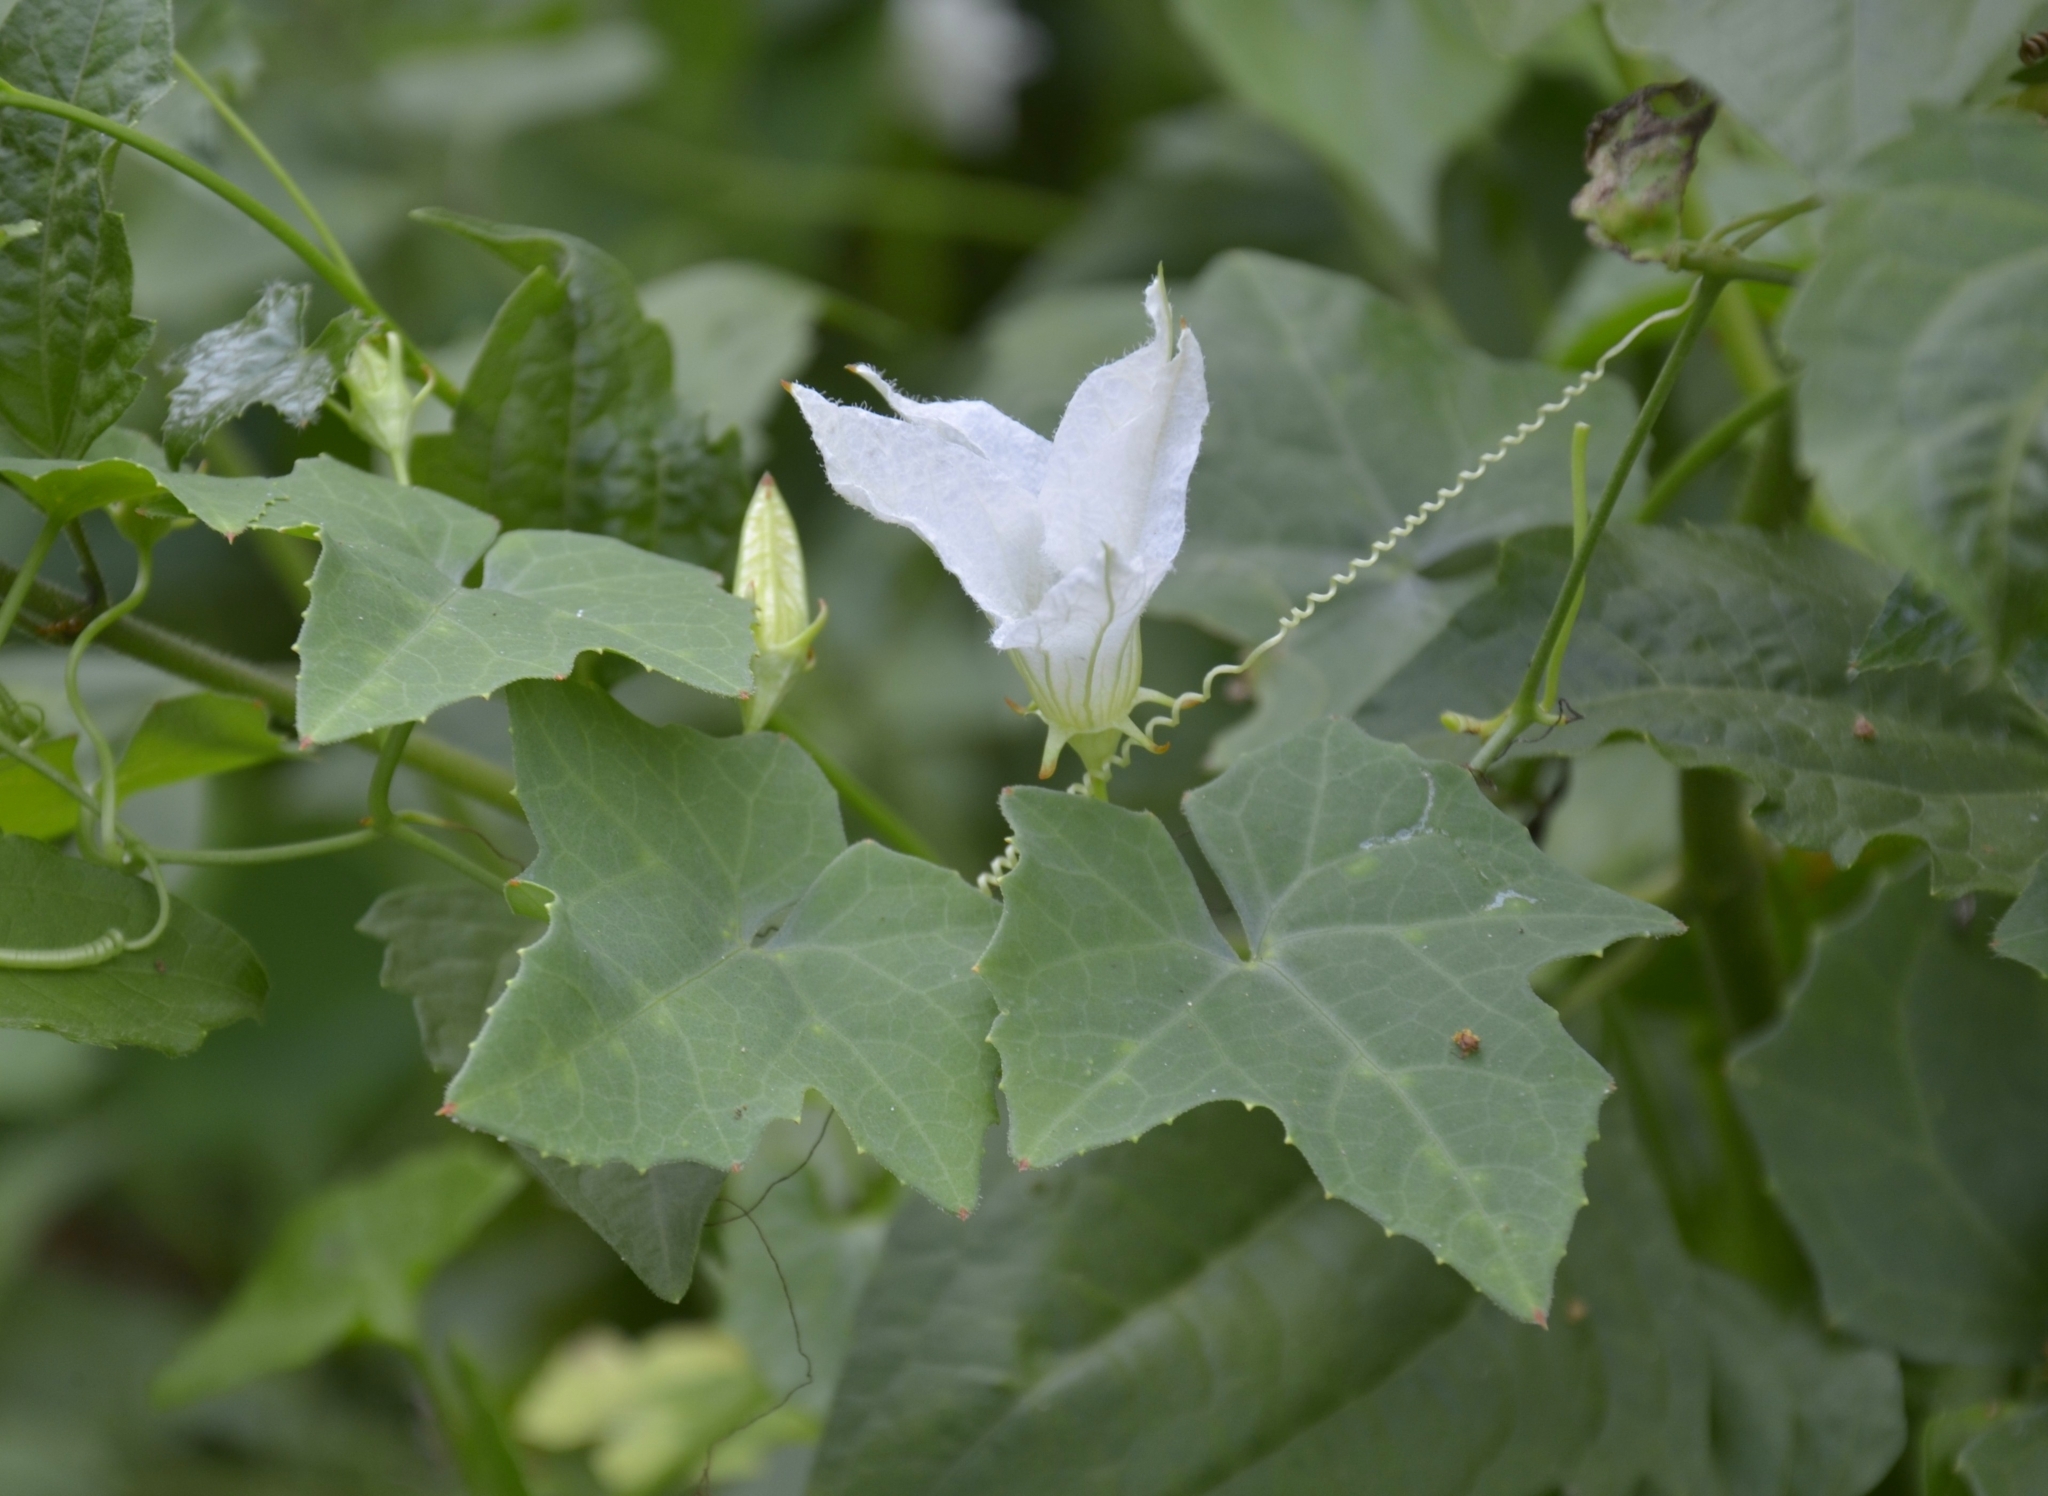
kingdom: Plantae
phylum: Tracheophyta
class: Magnoliopsida
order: Cucurbitales
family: Cucurbitaceae
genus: Coccinia
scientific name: Coccinia grandis
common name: Ivy gourd
